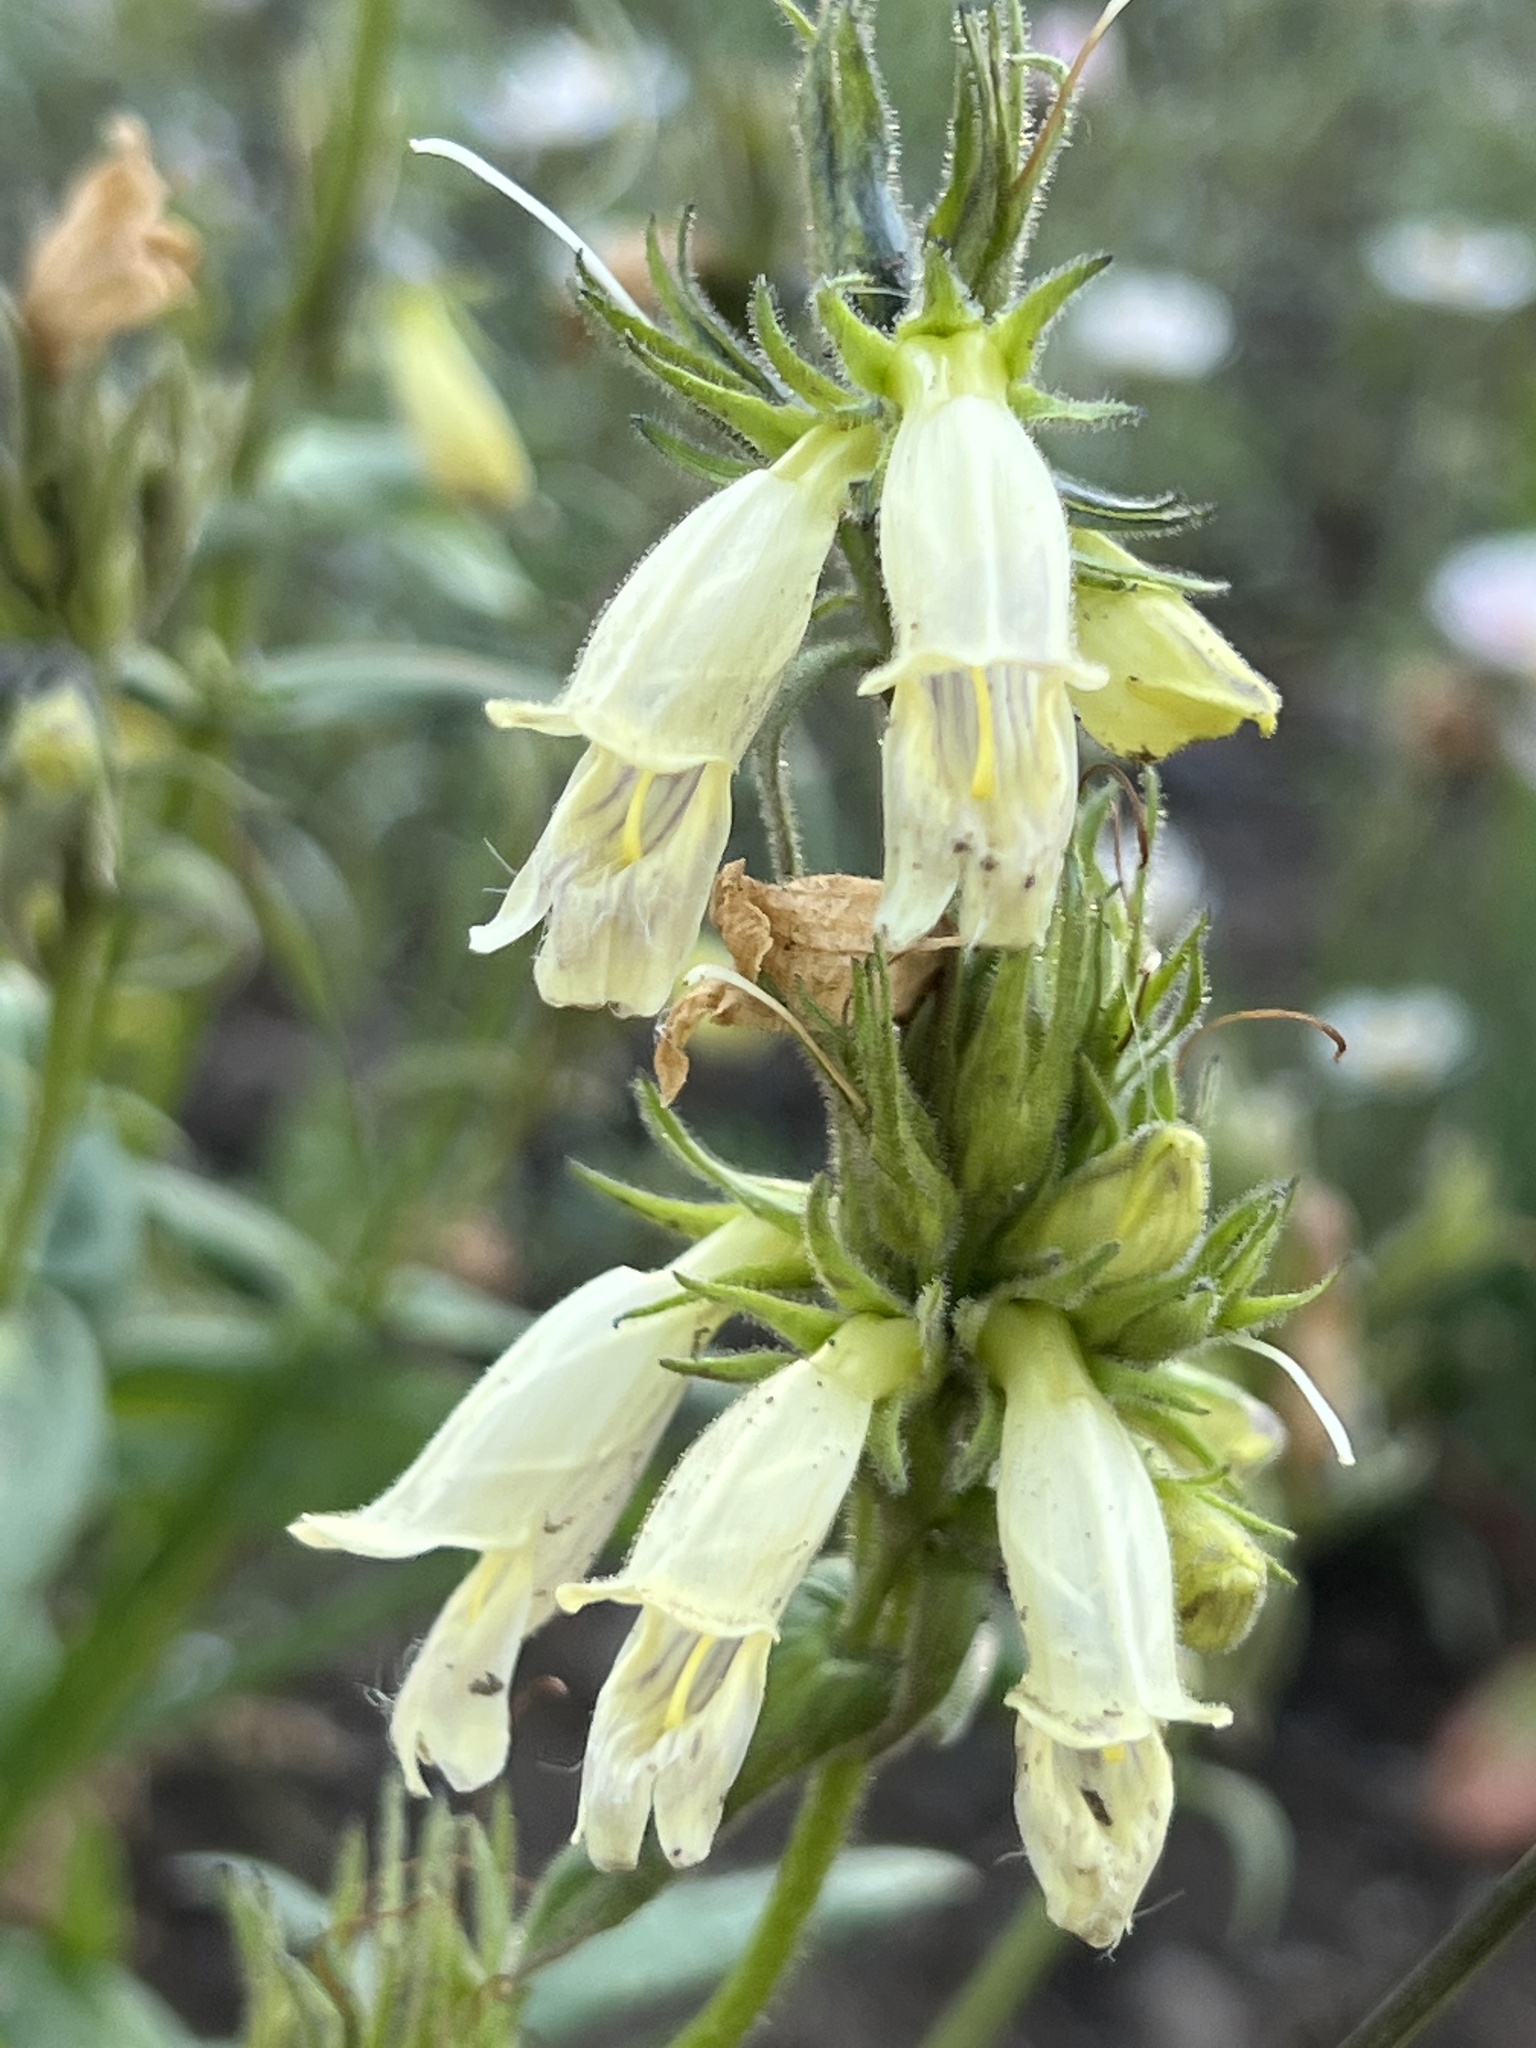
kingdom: Plantae
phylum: Tracheophyta
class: Magnoliopsida
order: Lamiales
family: Plantaginaceae
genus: Penstemon
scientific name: Penstemon whippleanus
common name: Whipple's penstemon
